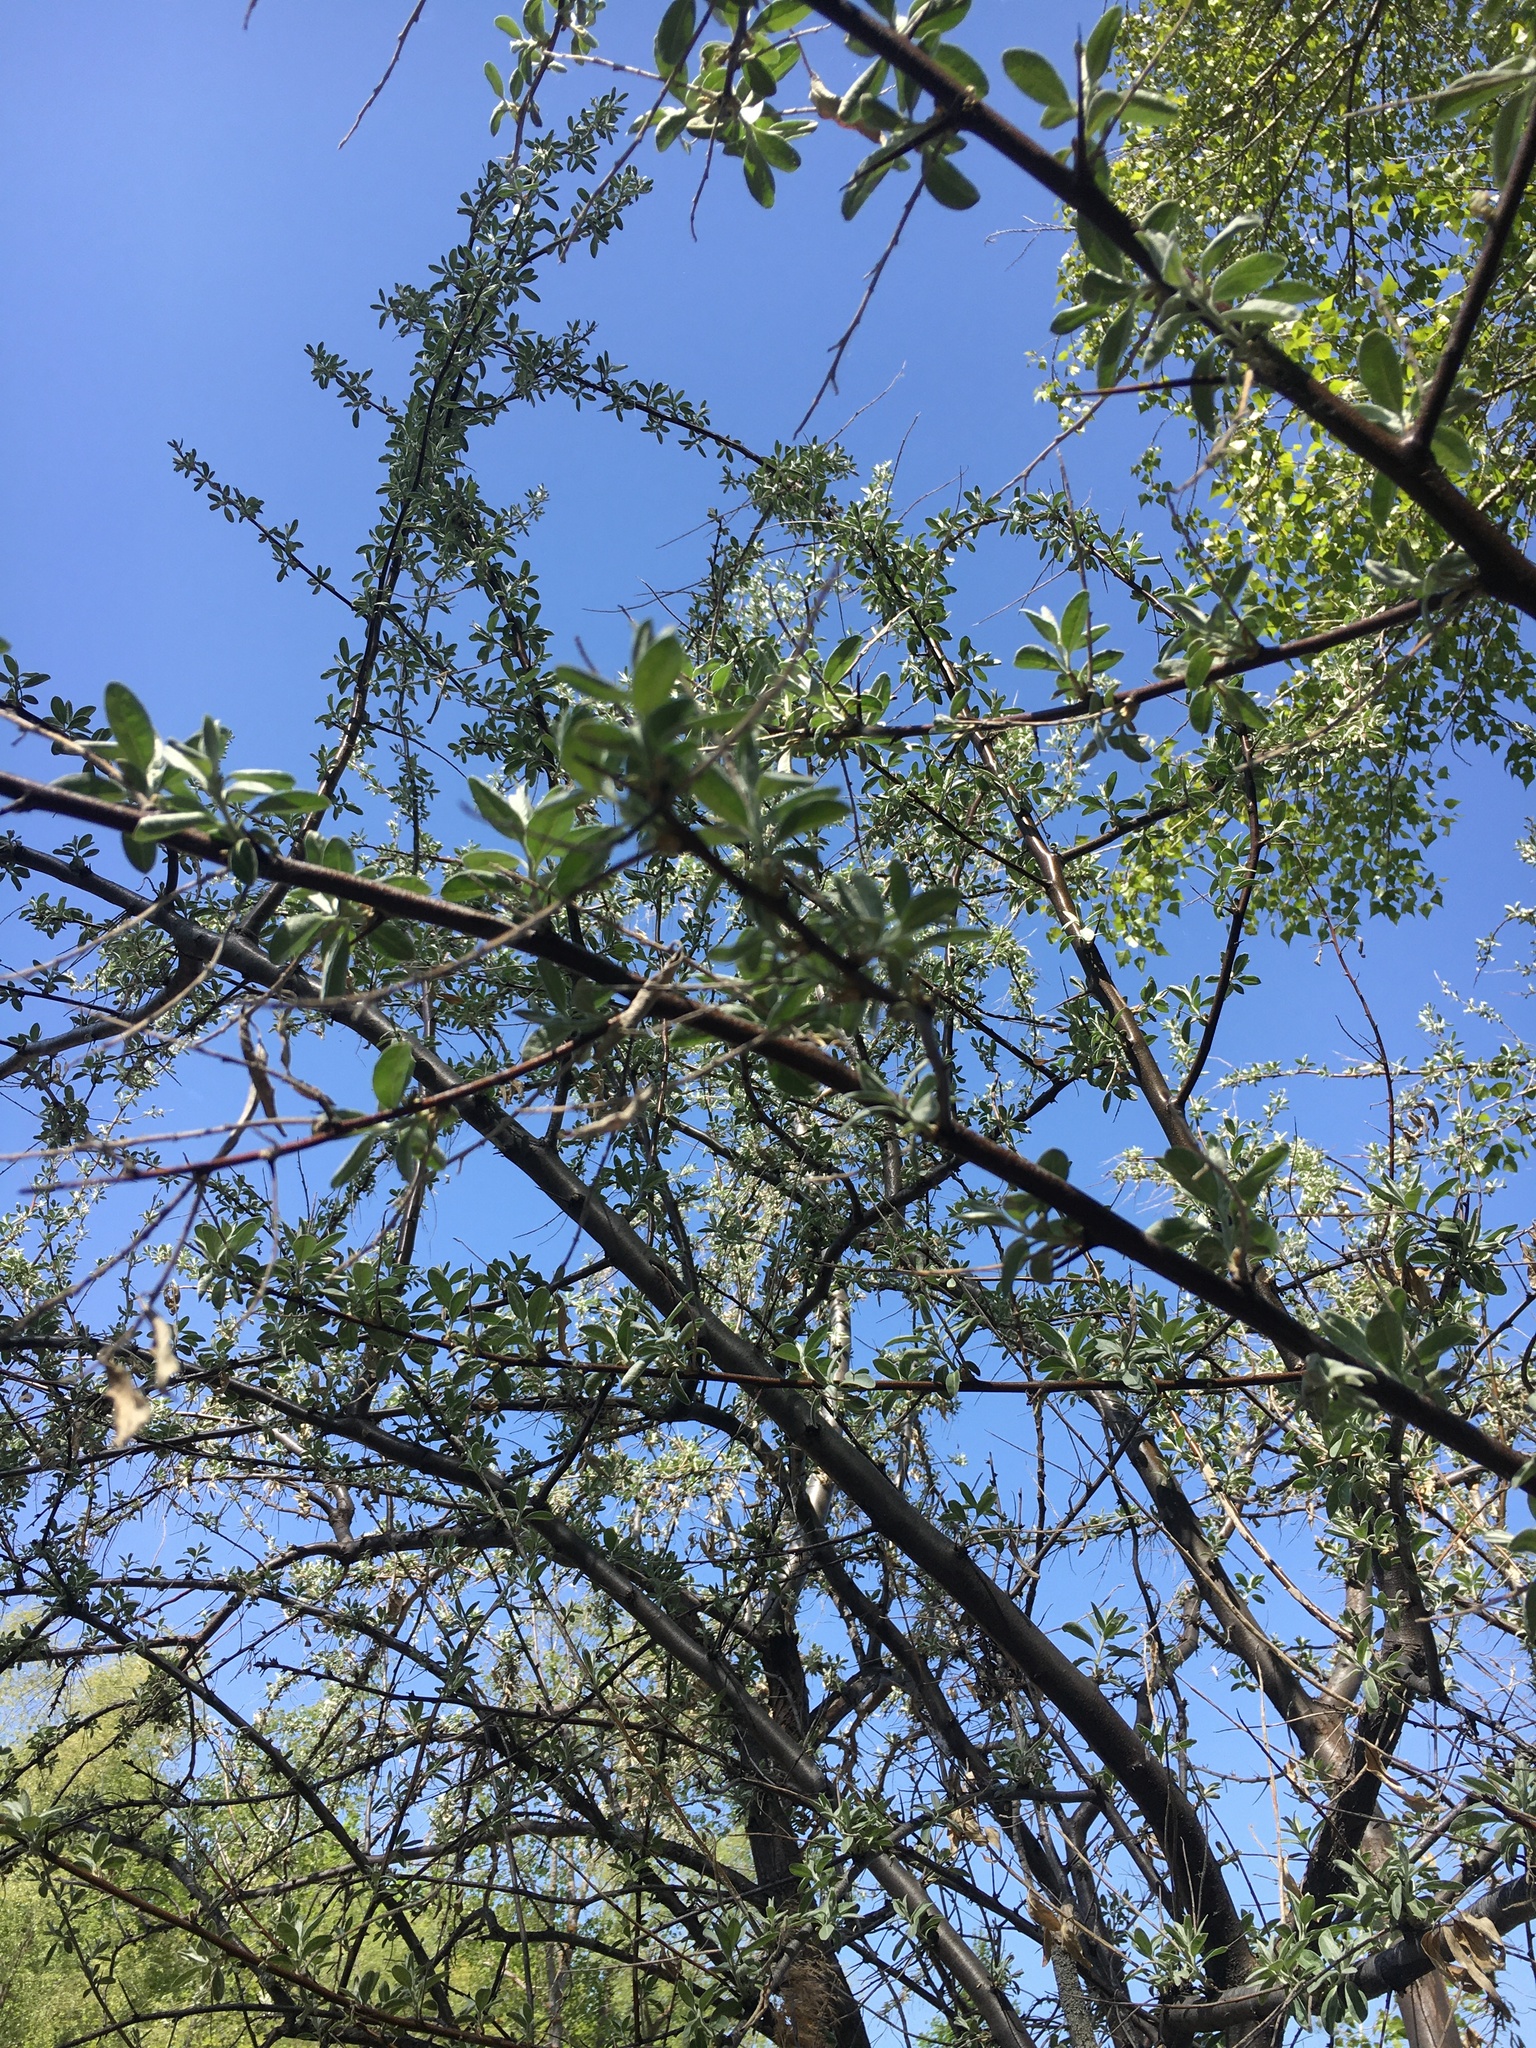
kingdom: Plantae
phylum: Tracheophyta
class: Magnoliopsida
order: Rosales
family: Elaeagnaceae
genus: Elaeagnus
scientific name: Elaeagnus angustifolia
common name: Russian olive
